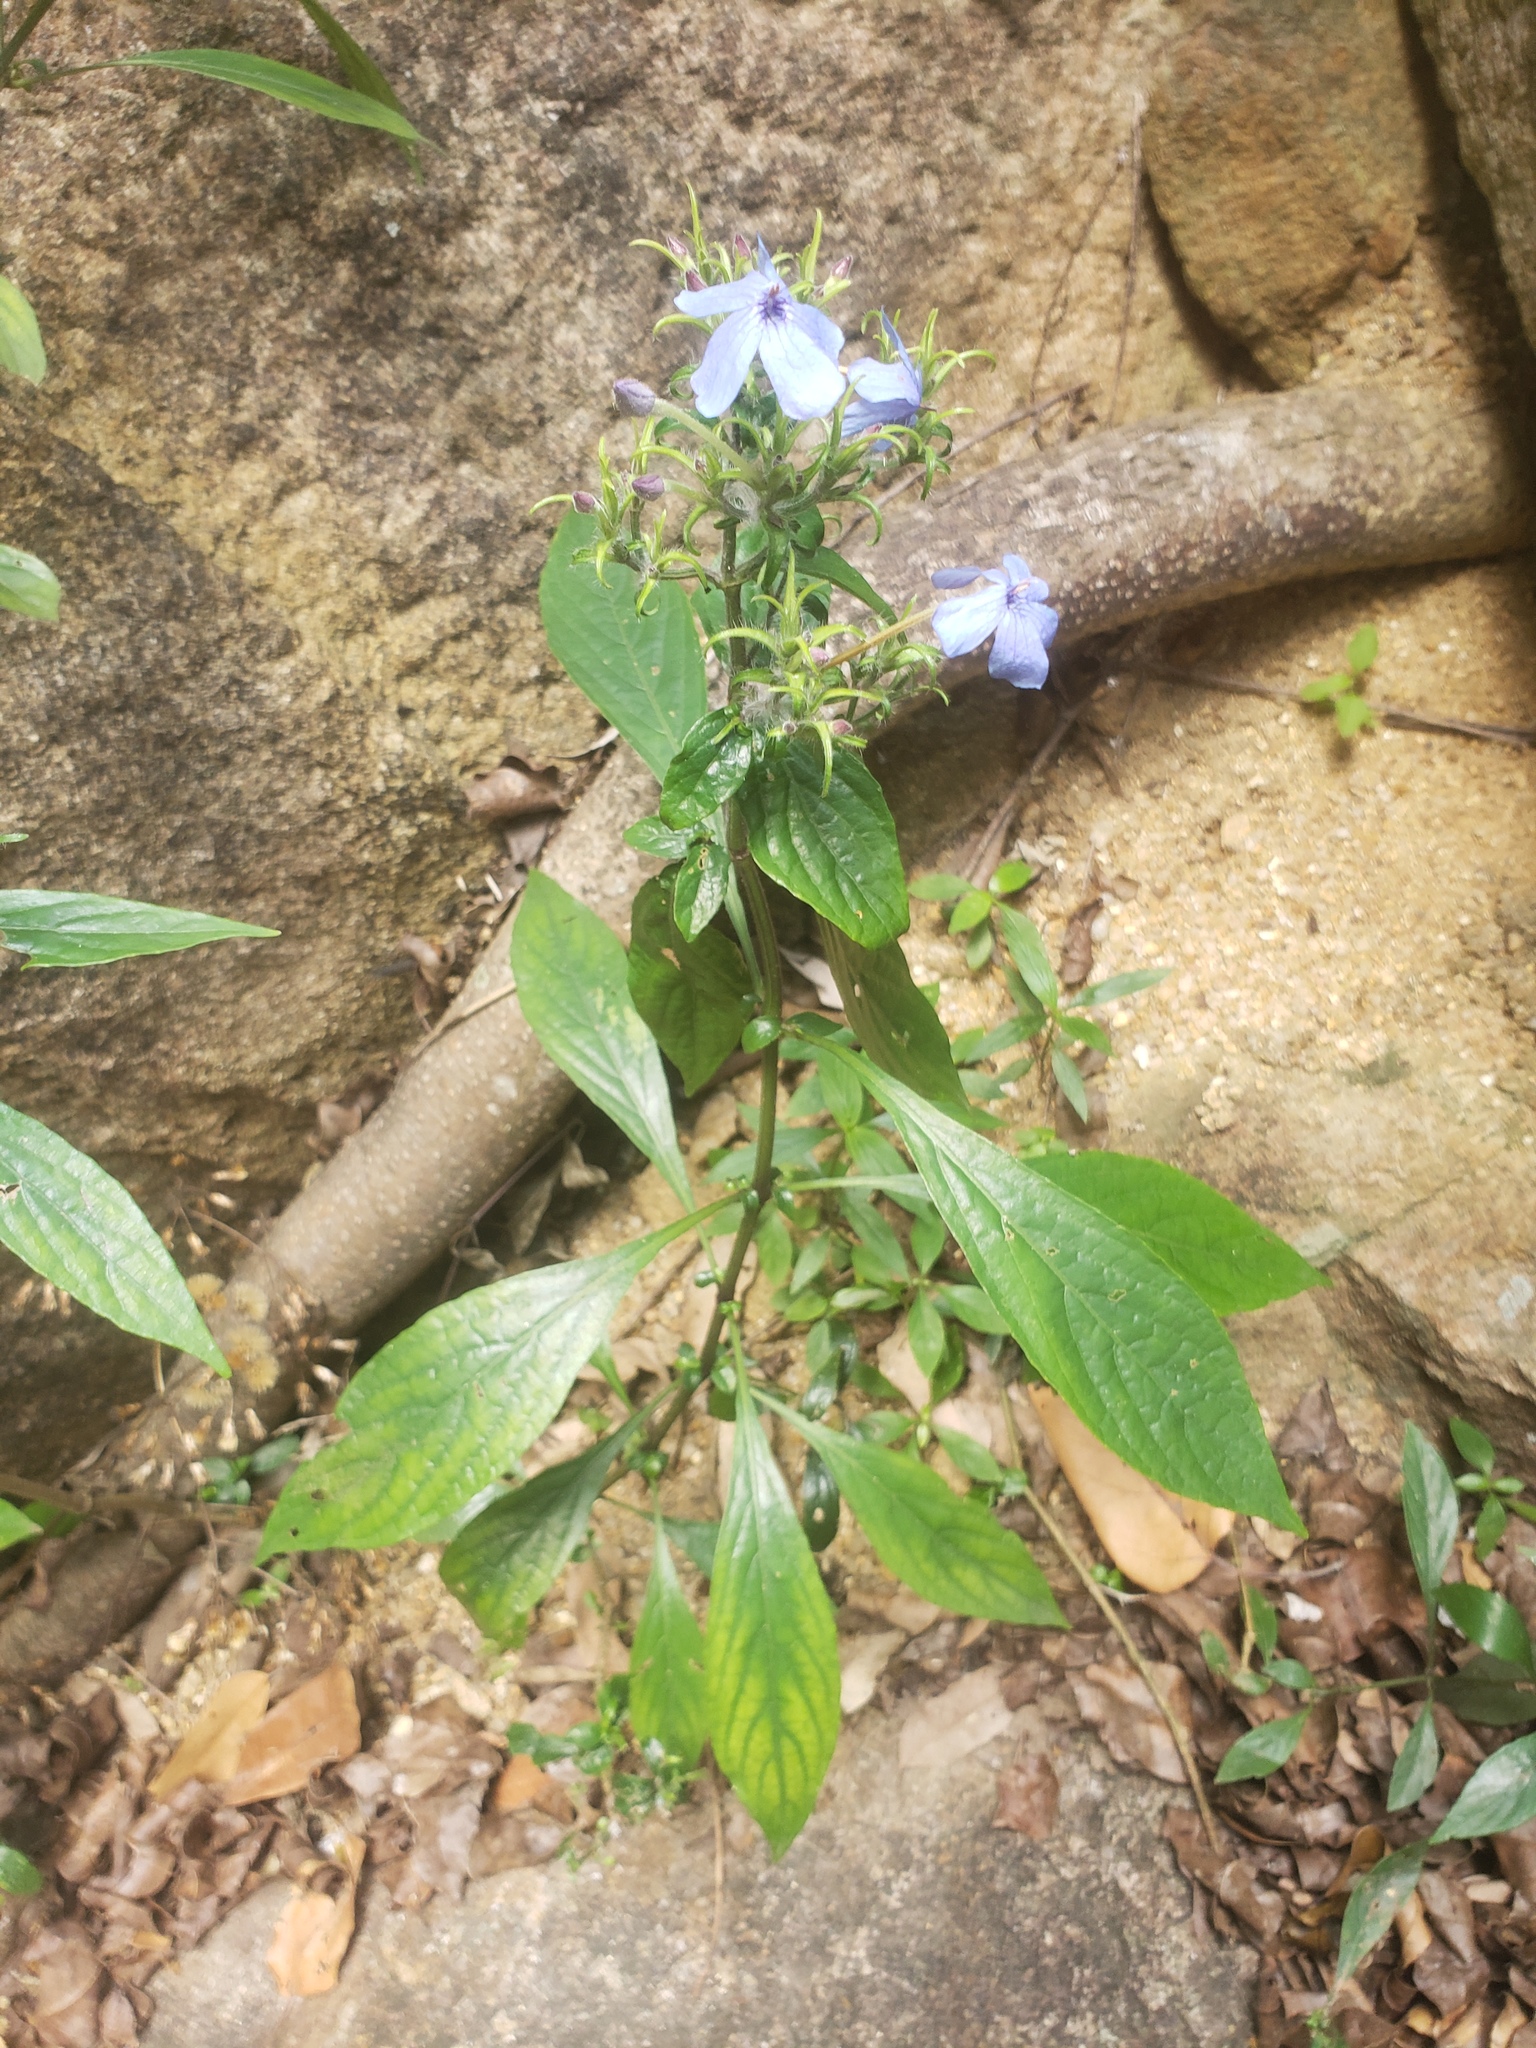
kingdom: Plantae
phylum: Tracheophyta
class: Magnoliopsida
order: Lamiales
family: Acanthaceae
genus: Eranthemum
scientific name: Eranthemum capense
